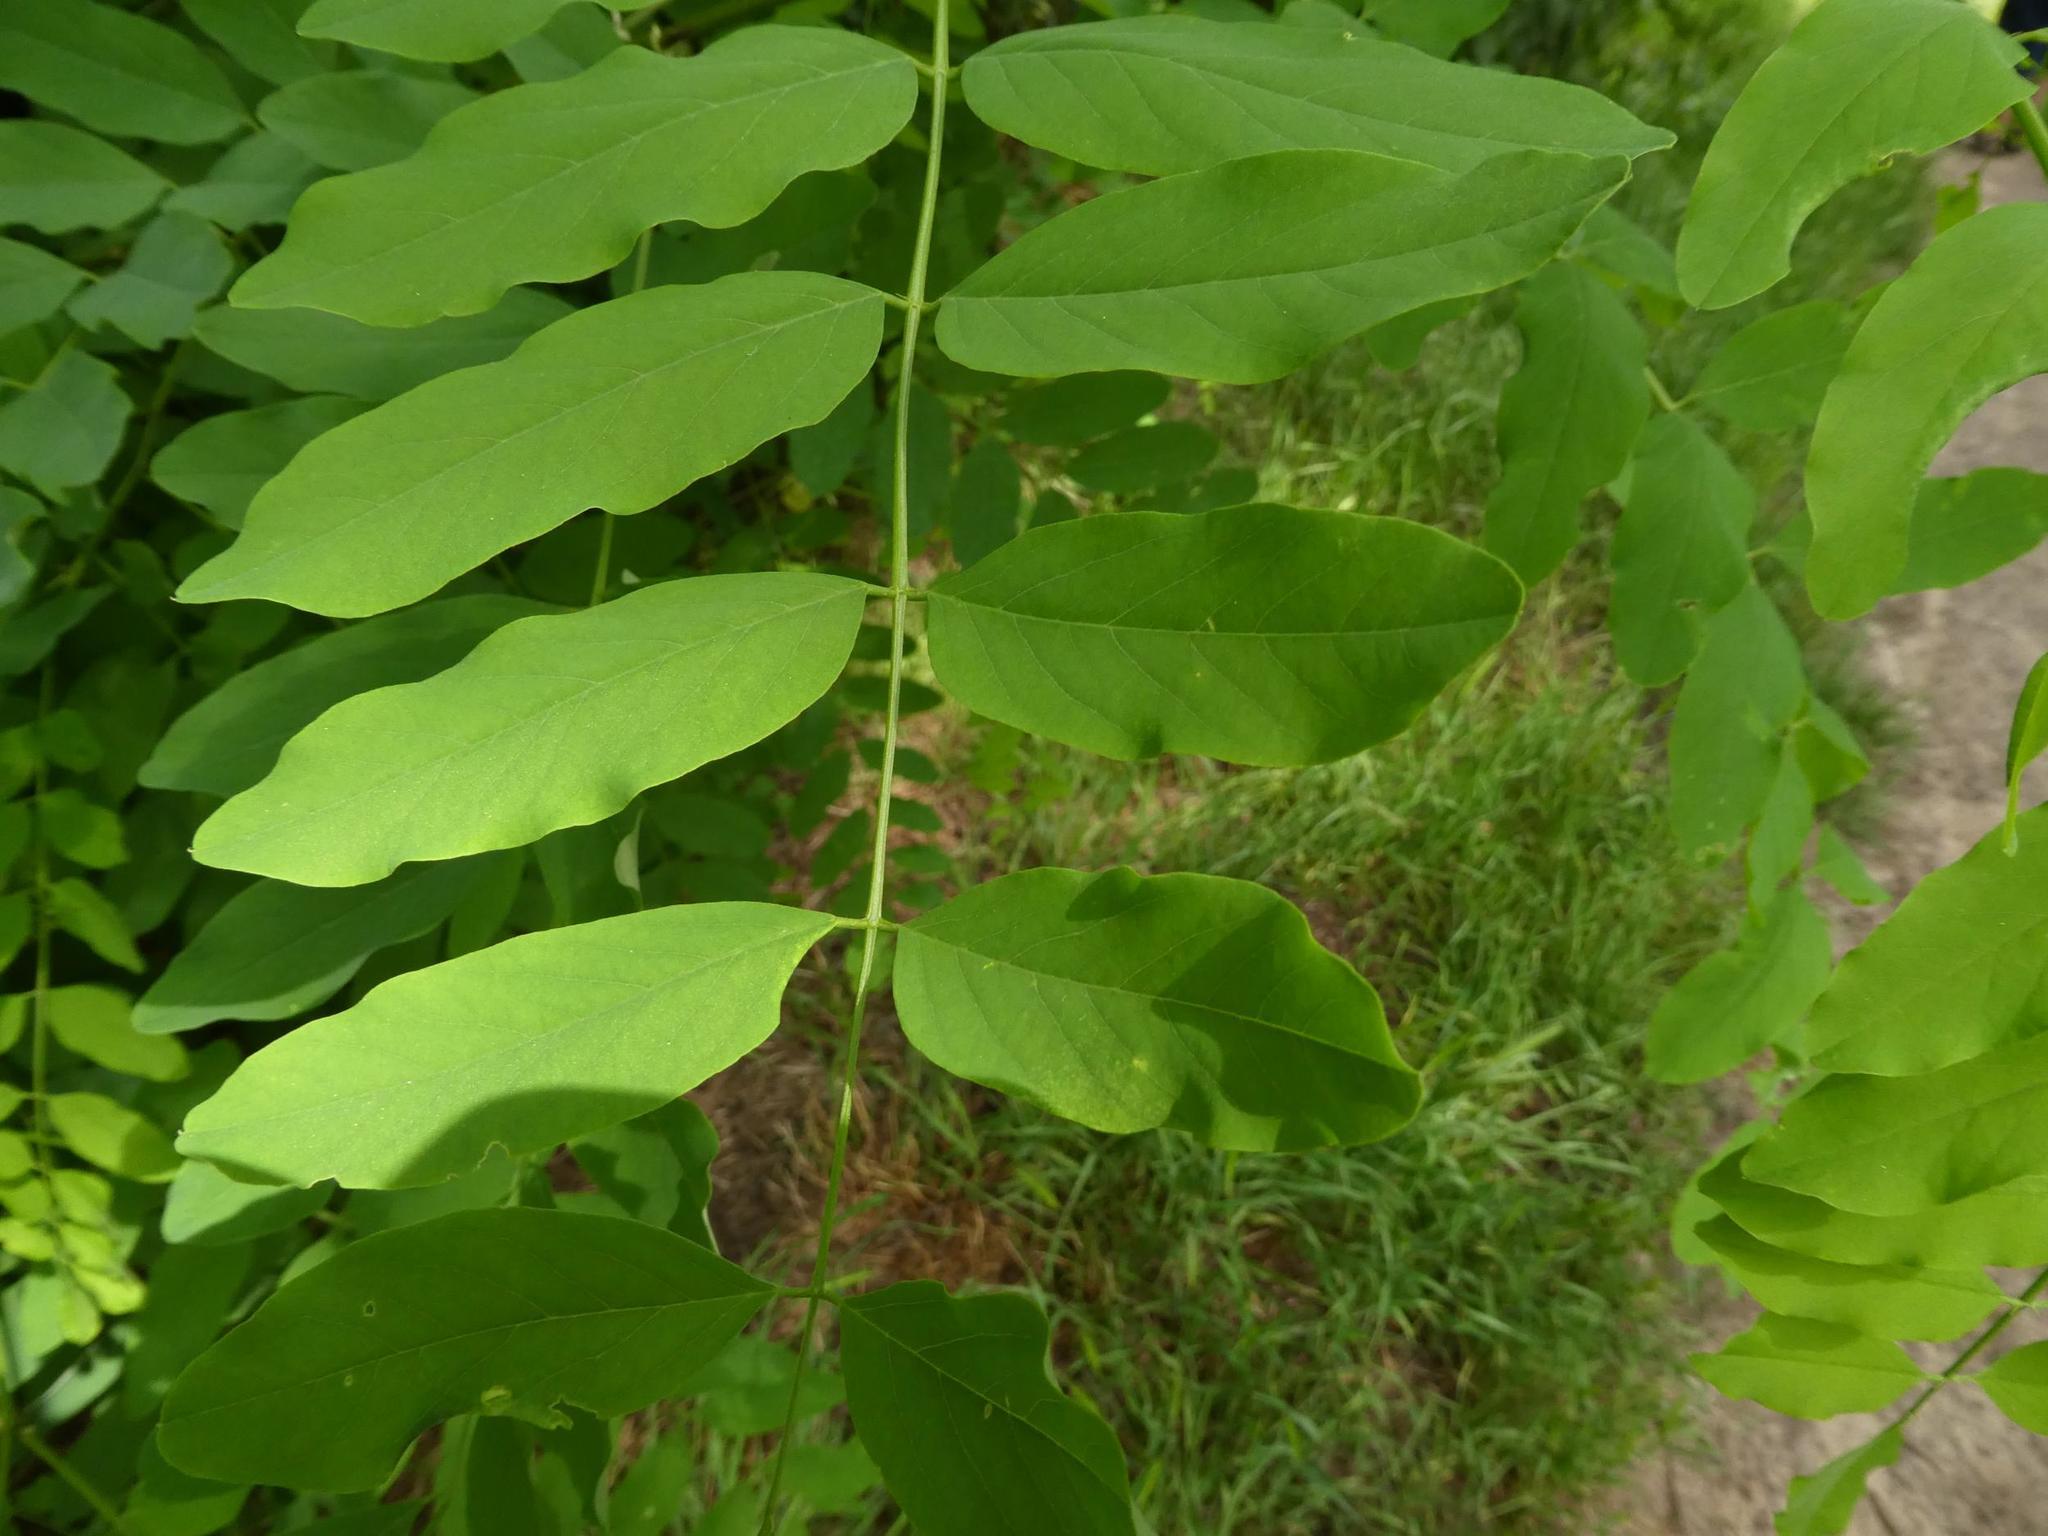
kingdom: Plantae
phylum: Tracheophyta
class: Magnoliopsida
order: Fabales
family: Fabaceae
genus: Robinia
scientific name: Robinia pseudoacacia
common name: Black locust
